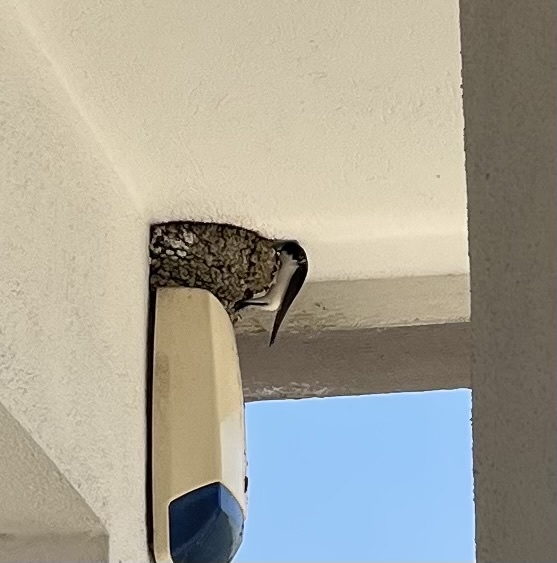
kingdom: Animalia
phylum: Chordata
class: Aves
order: Passeriformes
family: Hirundinidae
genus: Delichon
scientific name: Delichon urbicum
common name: Common house martin
